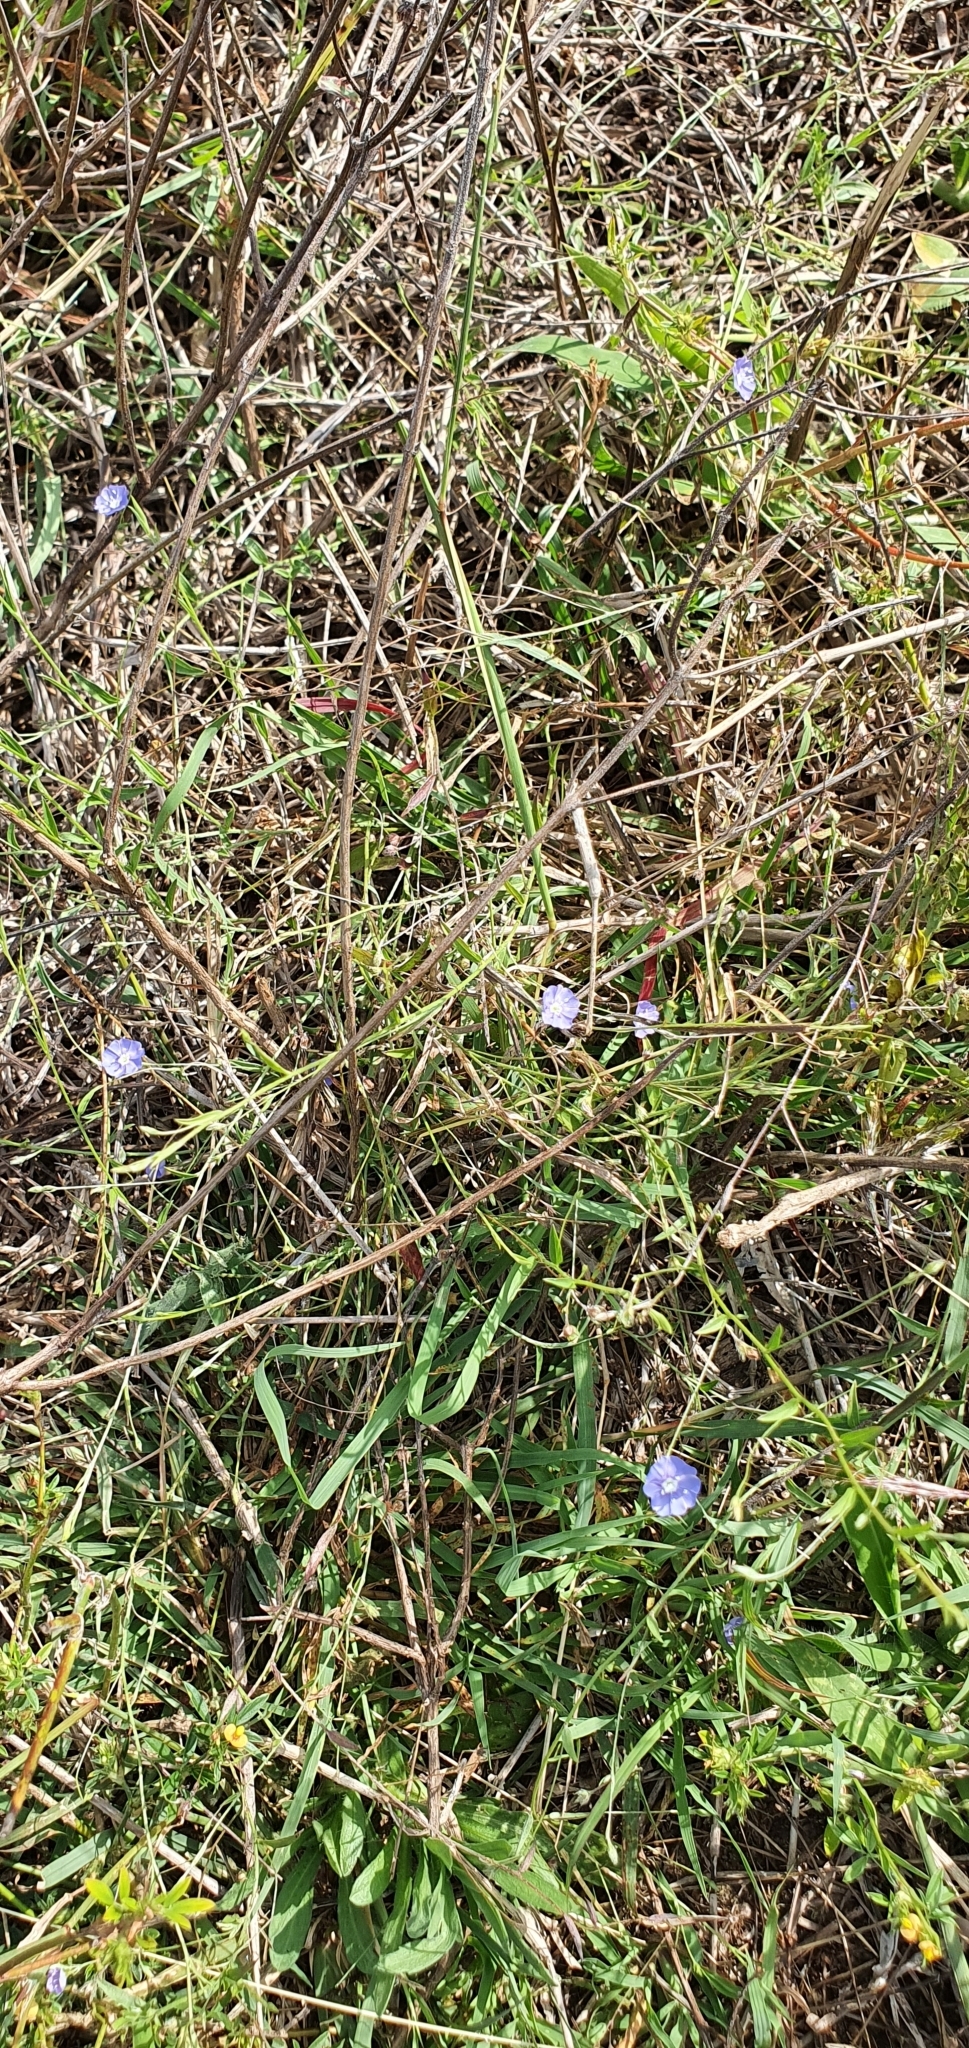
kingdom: Plantae
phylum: Tracheophyta
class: Magnoliopsida
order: Solanales
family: Convolvulaceae
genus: Evolvulus
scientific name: Evolvulus alsinoides
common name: Slender dwarf morning-glory
